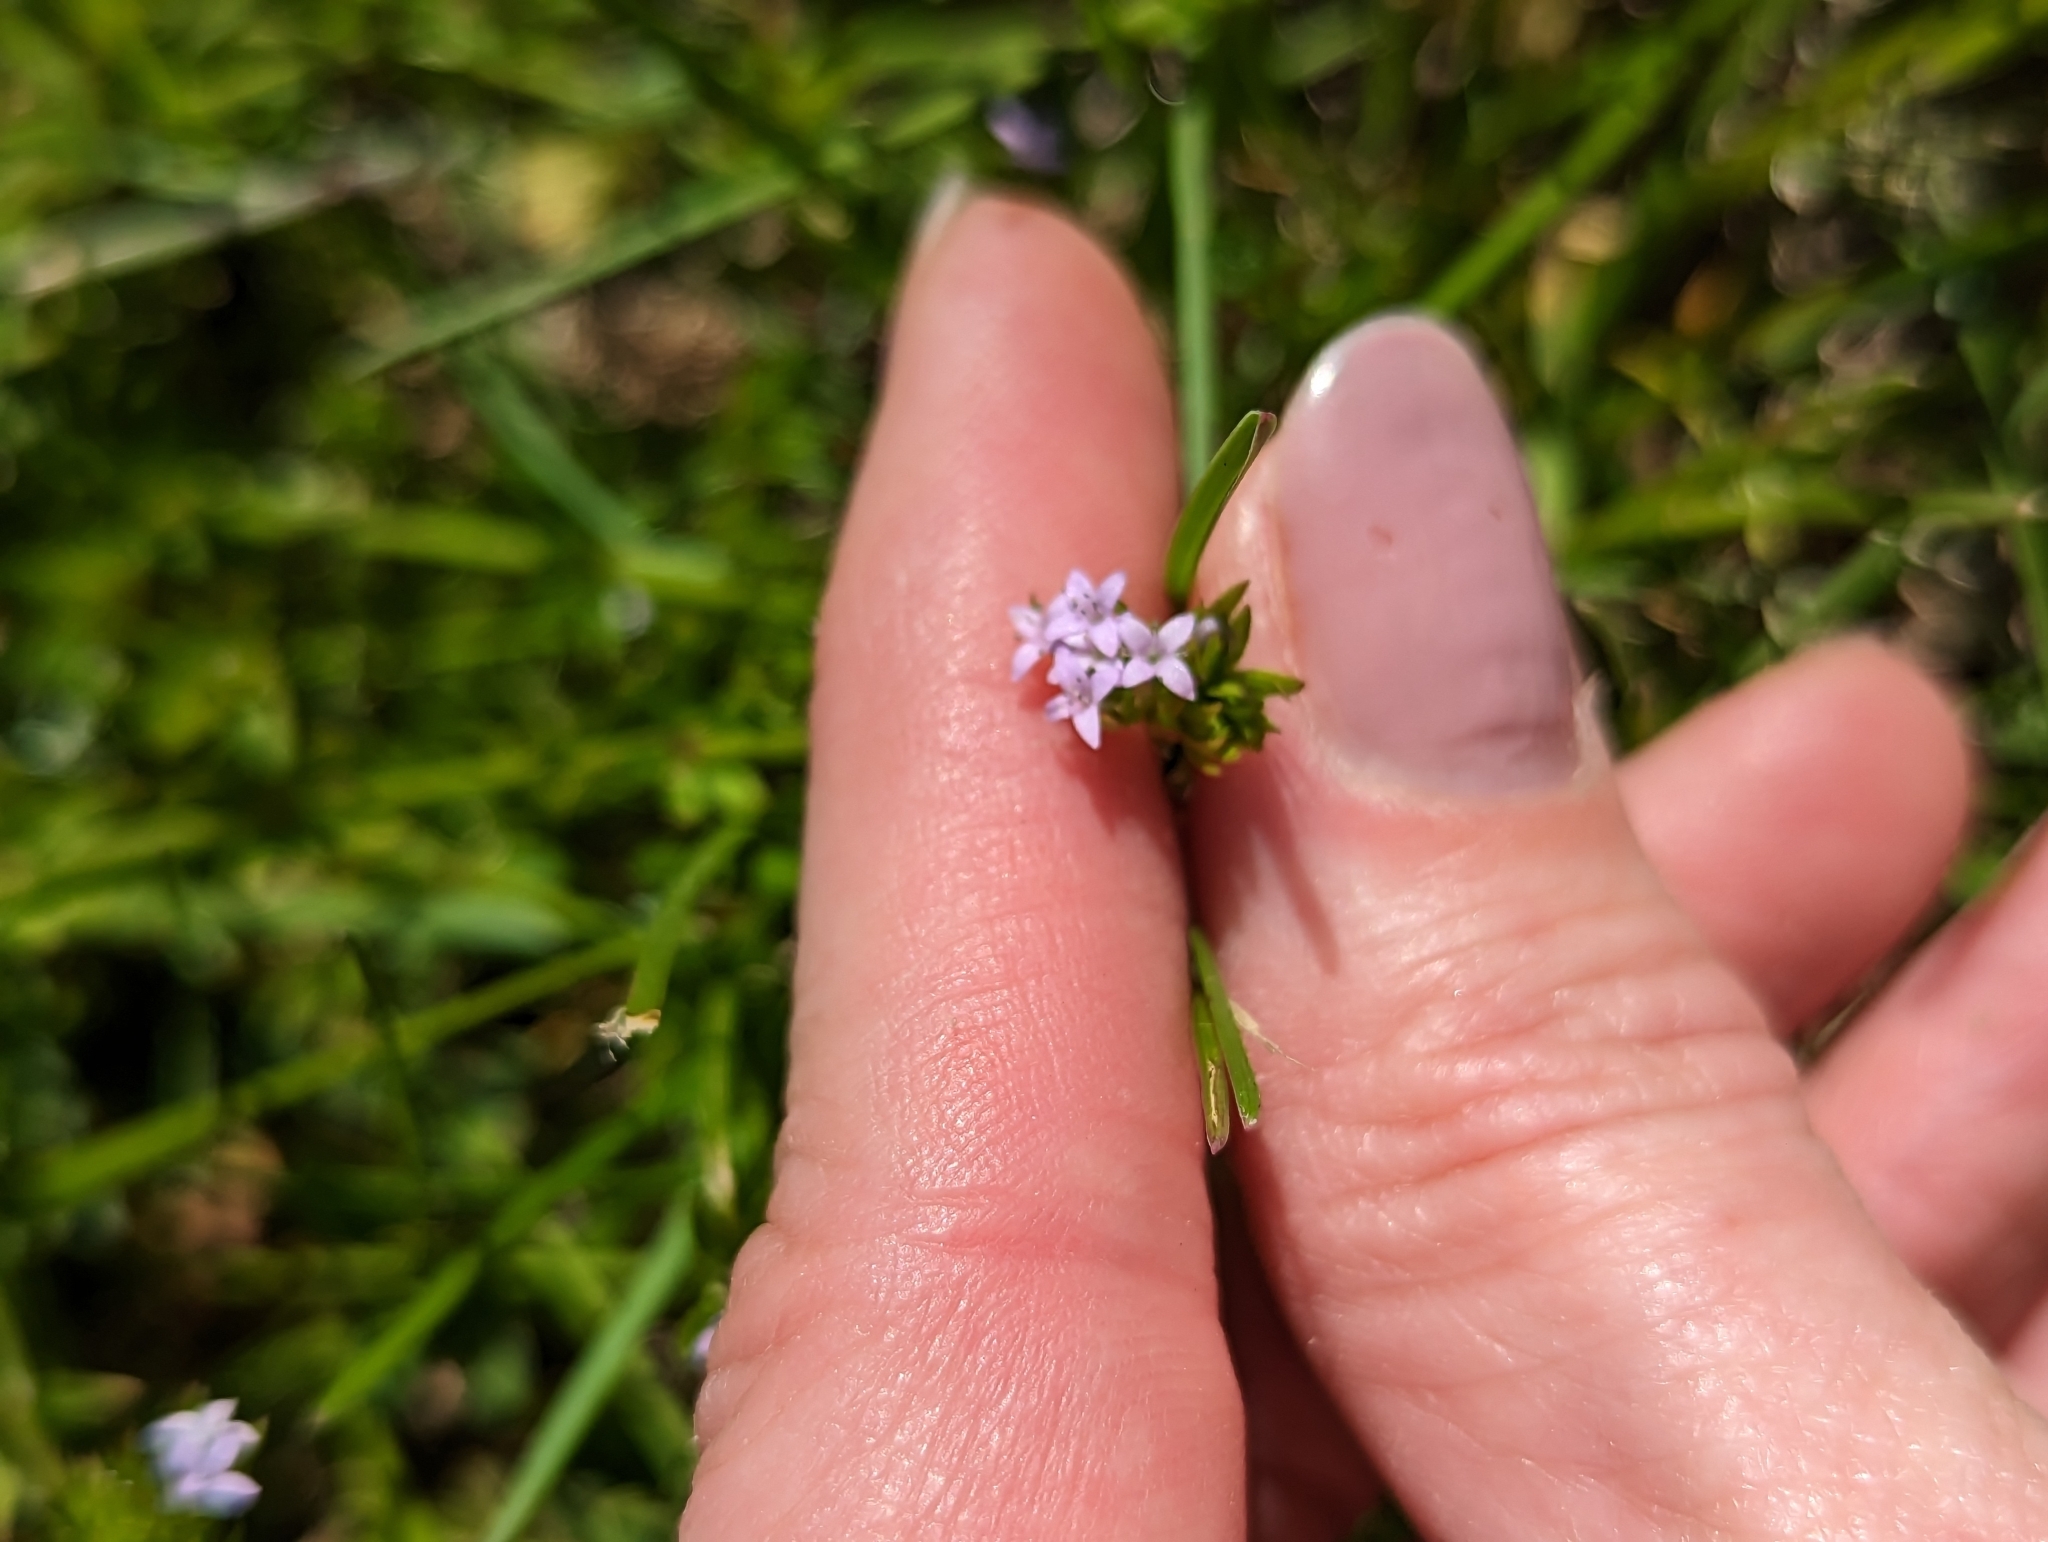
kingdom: Plantae
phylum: Tracheophyta
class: Magnoliopsida
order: Gentianales
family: Rubiaceae
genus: Sherardia
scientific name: Sherardia arvensis
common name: Field madder
